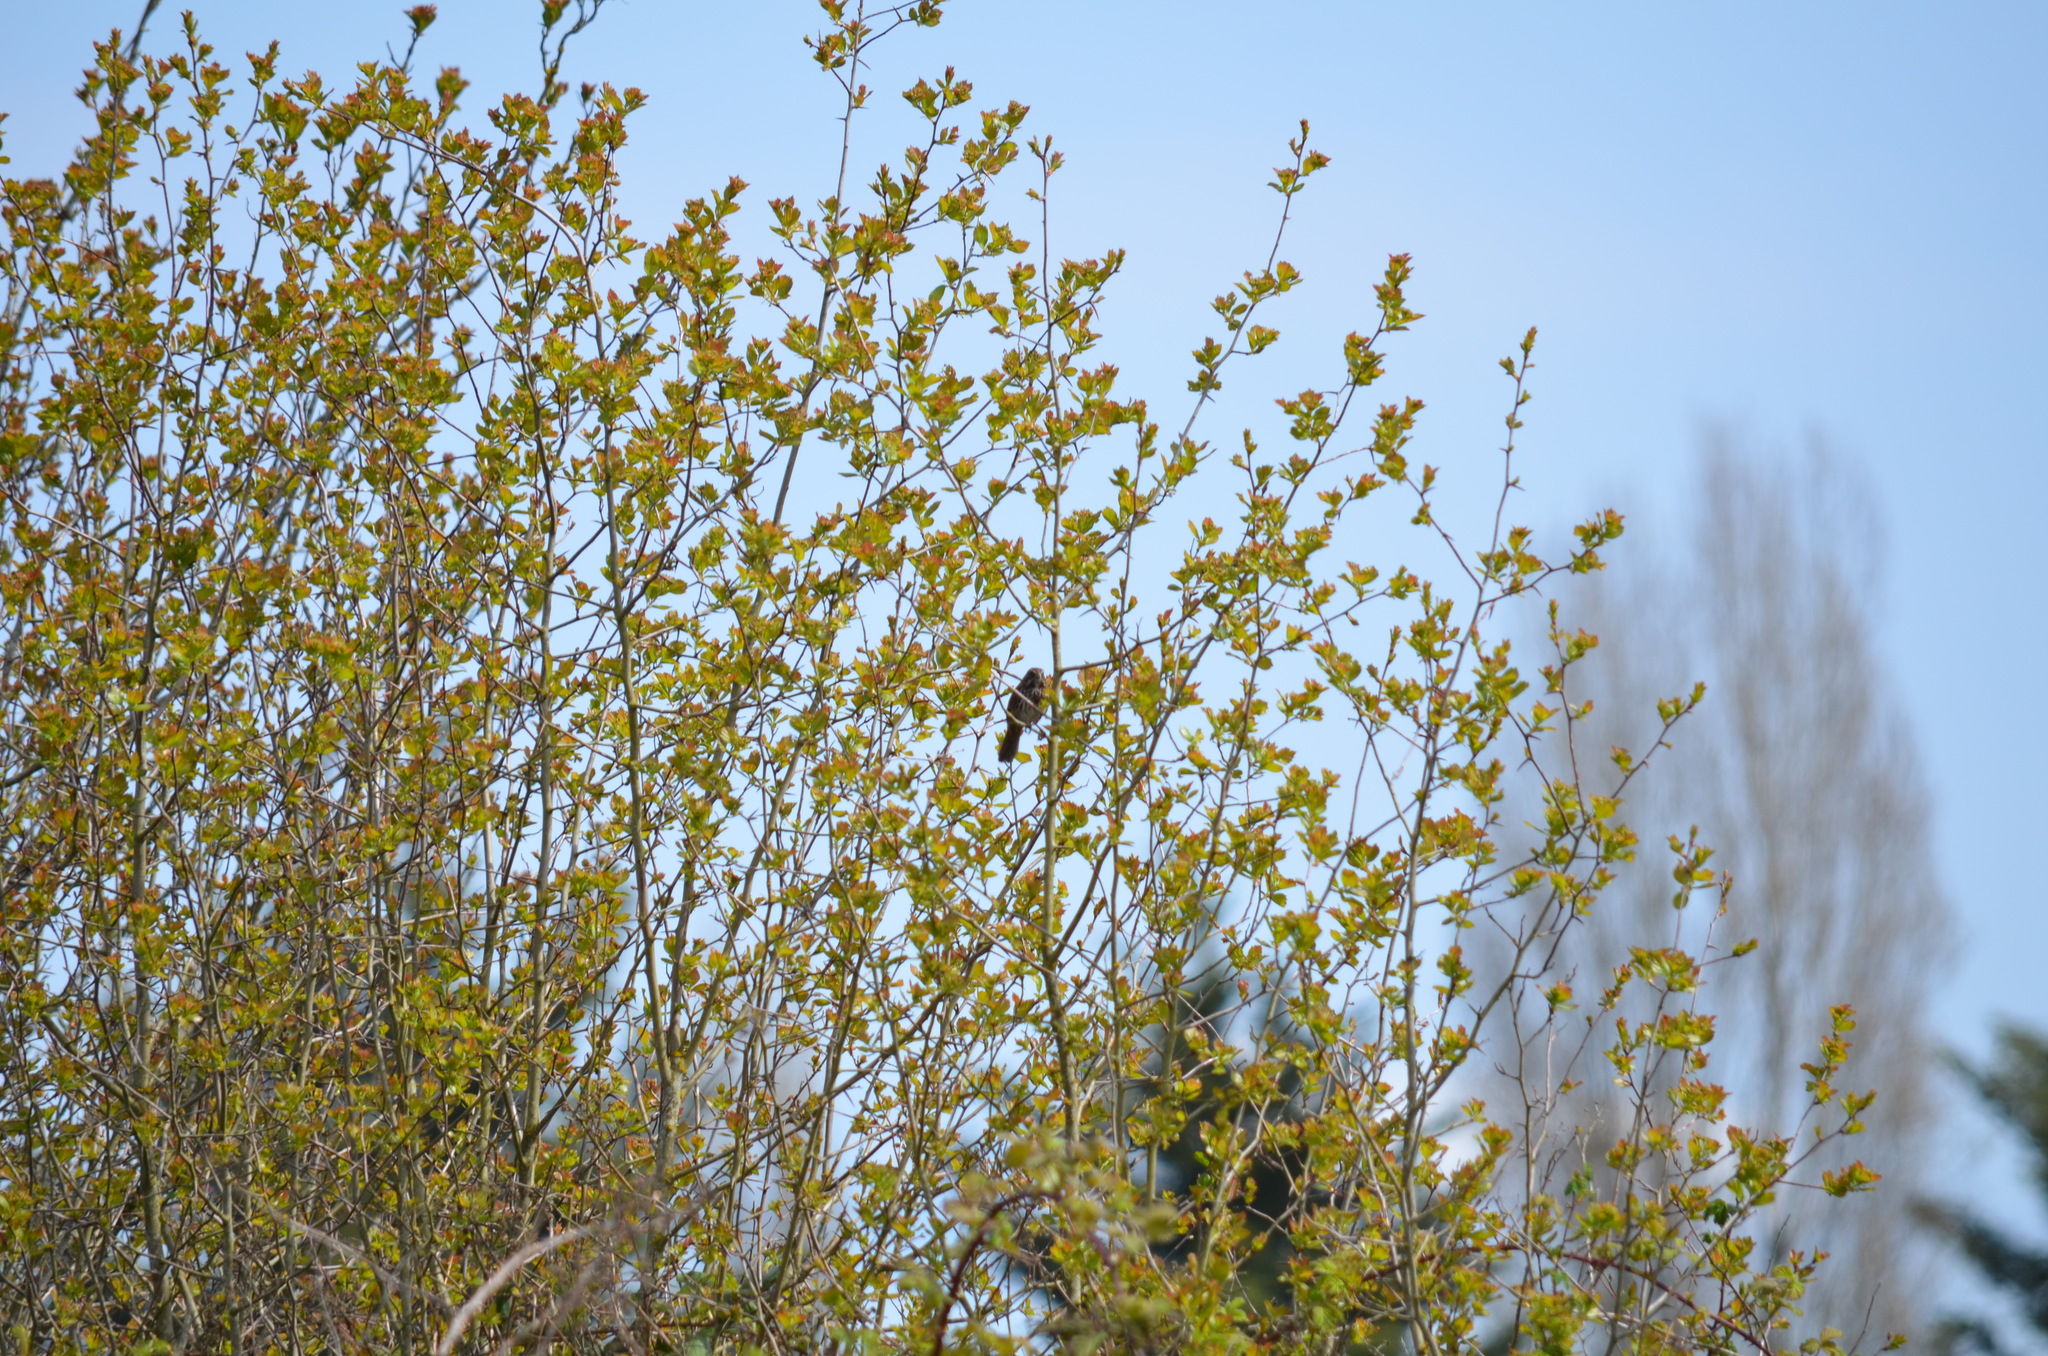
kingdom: Animalia
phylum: Chordata
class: Aves
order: Passeriformes
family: Passerellidae
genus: Melospiza
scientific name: Melospiza melodia
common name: Song sparrow
